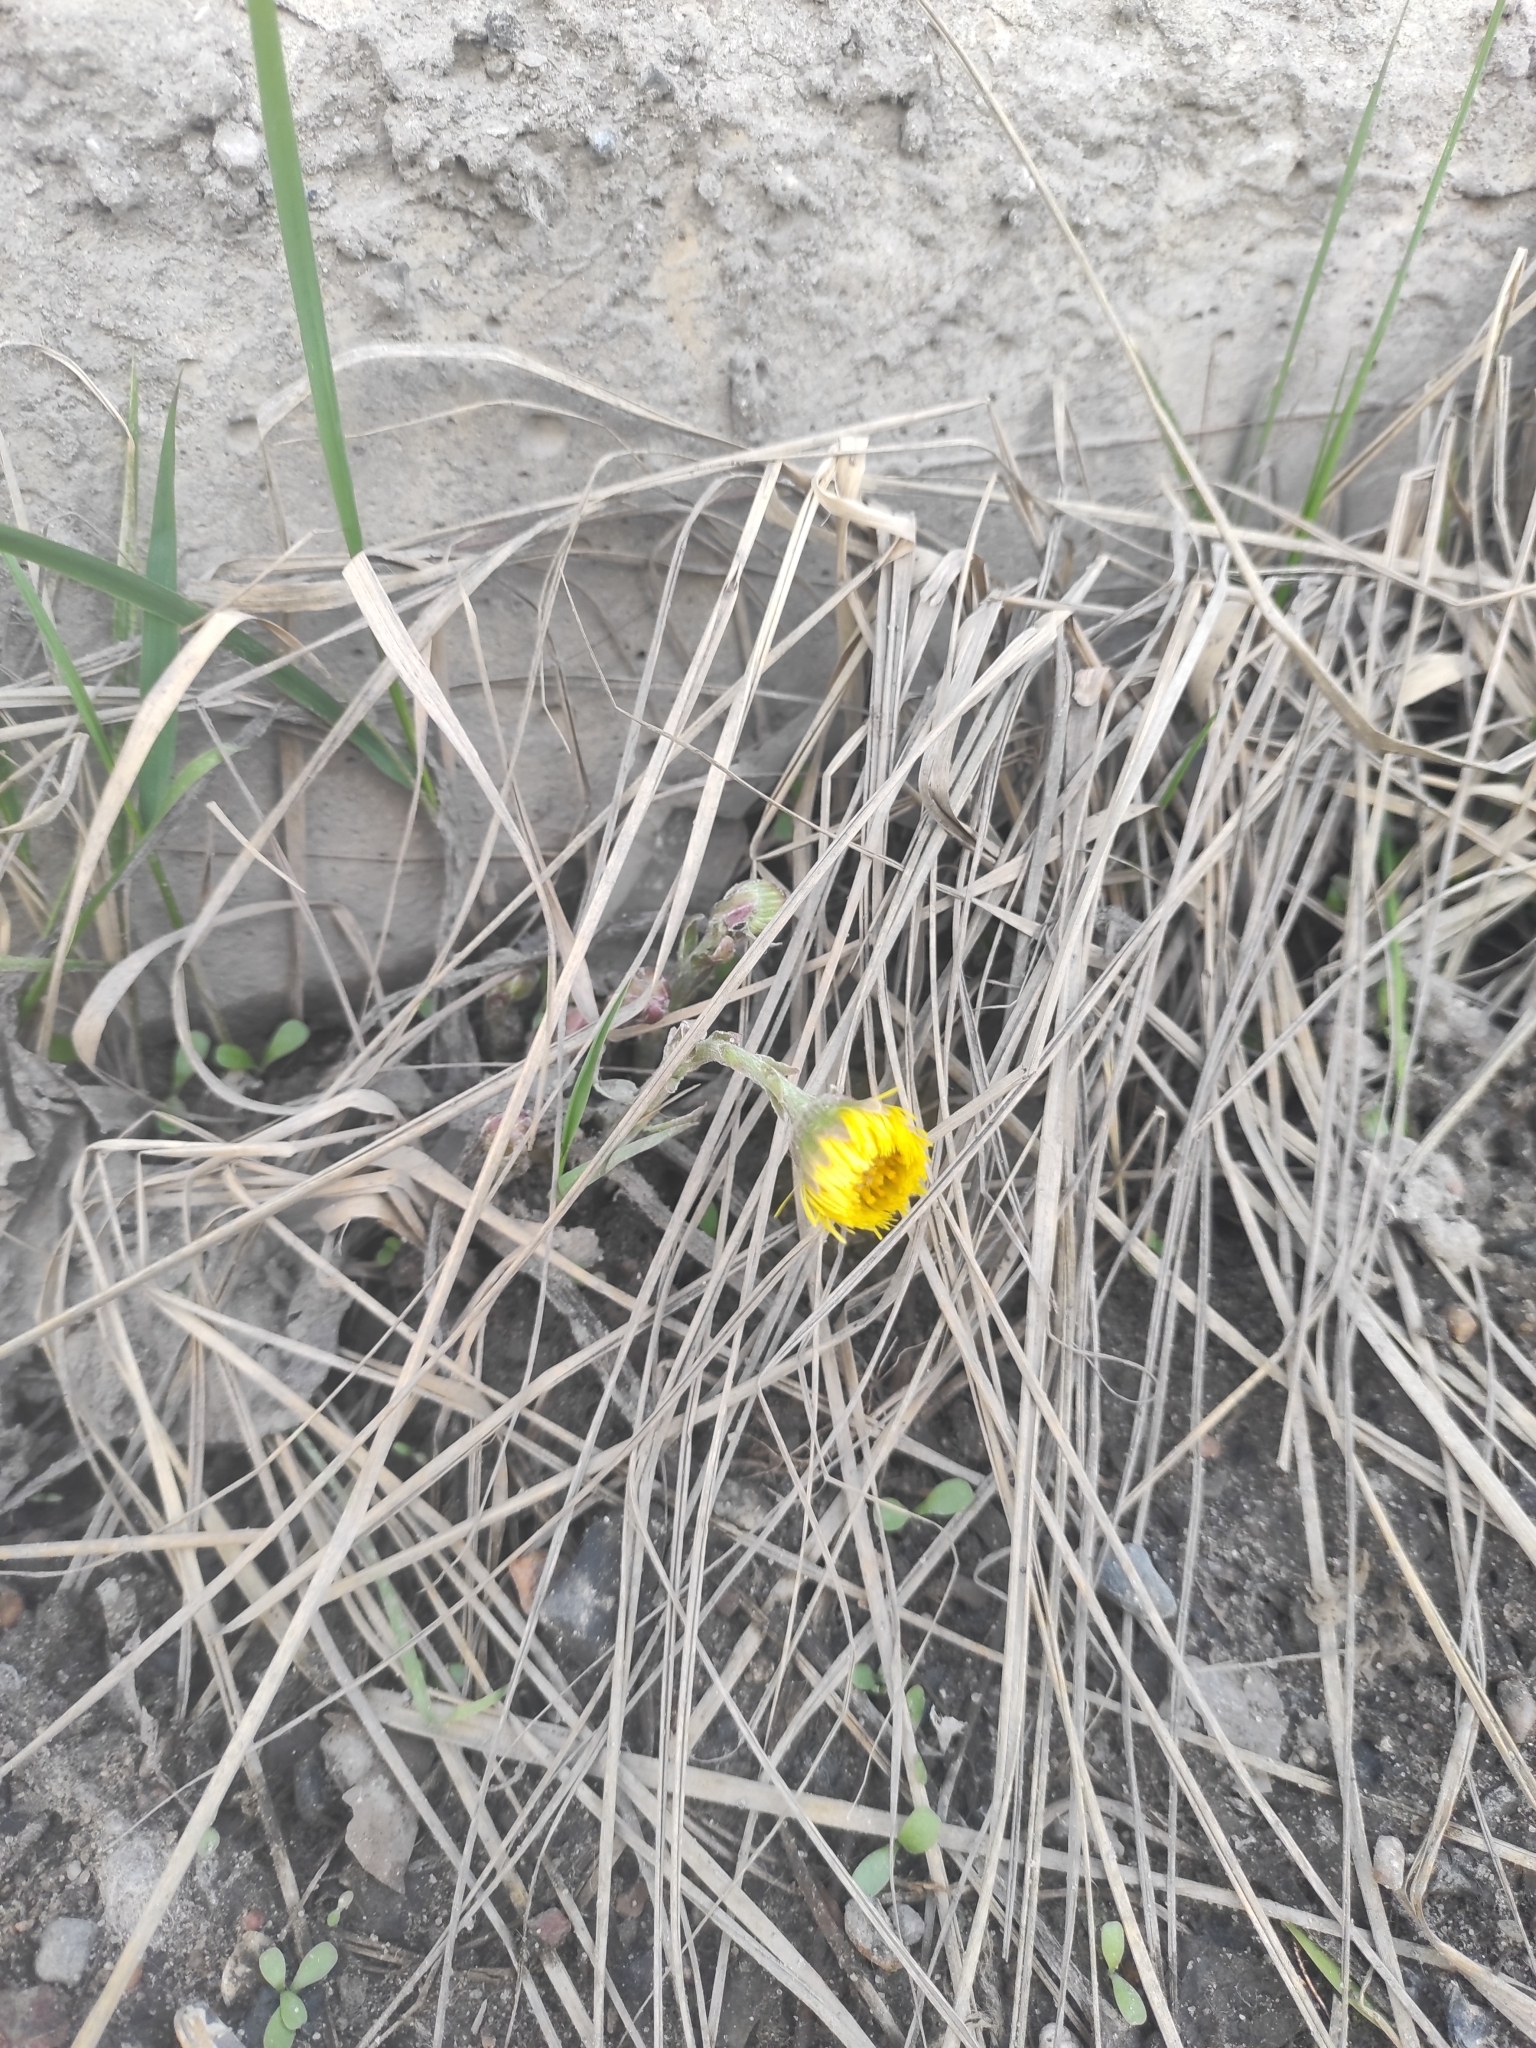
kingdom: Plantae
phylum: Tracheophyta
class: Magnoliopsida
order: Asterales
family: Asteraceae
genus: Tussilago
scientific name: Tussilago farfara
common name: Coltsfoot
